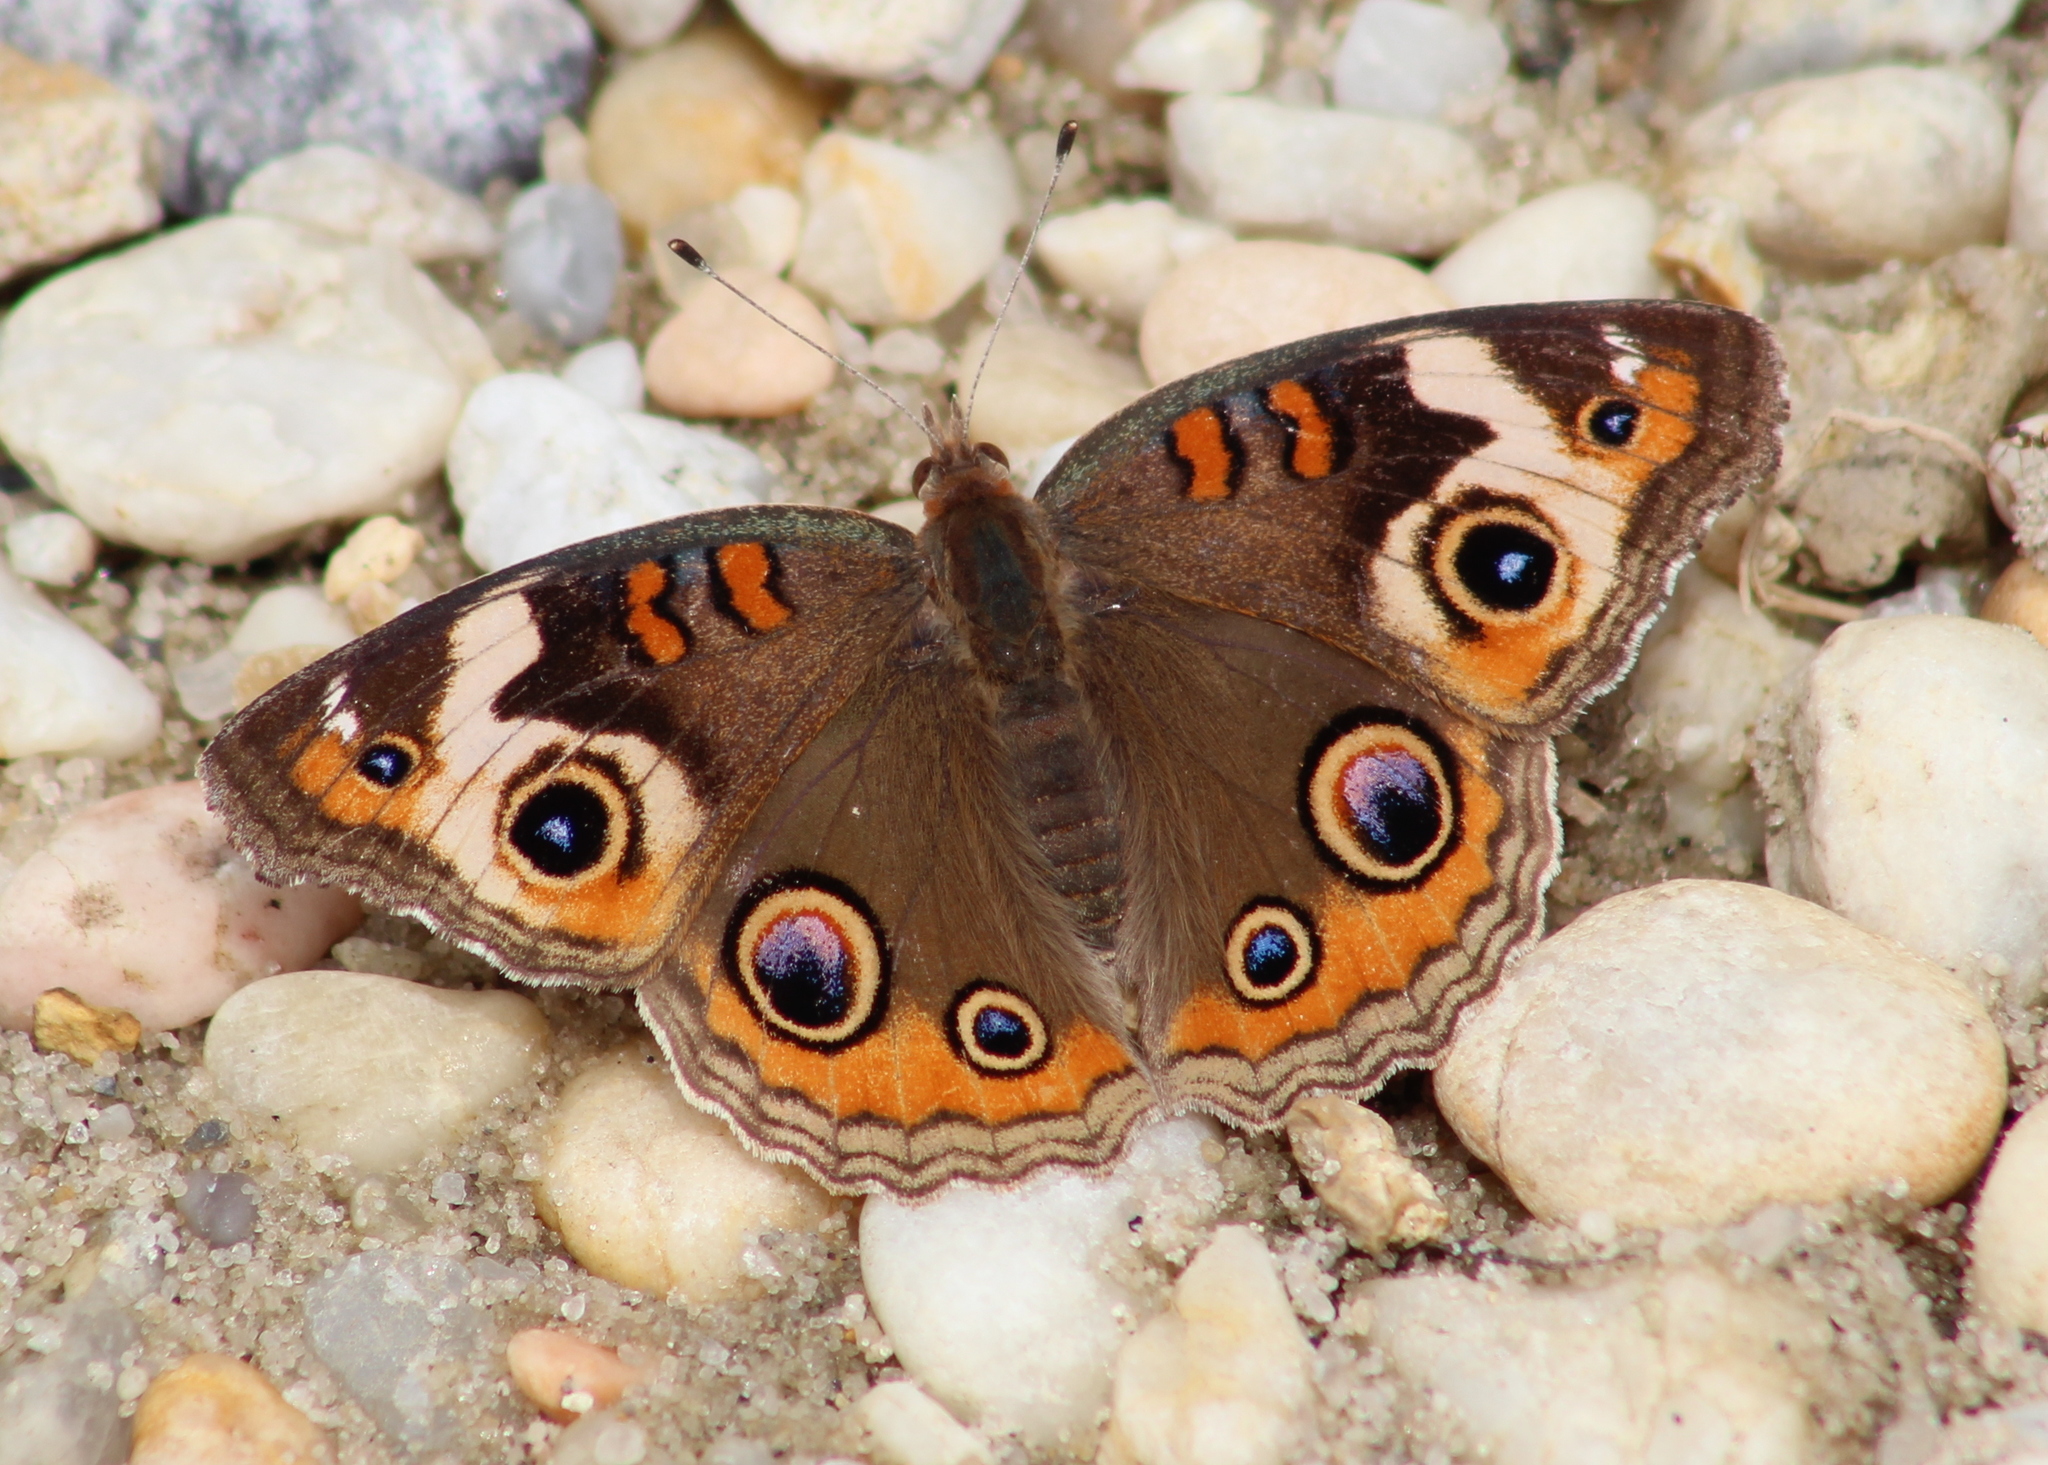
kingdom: Animalia
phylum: Arthropoda
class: Insecta
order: Lepidoptera
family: Nymphalidae
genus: Junonia
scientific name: Junonia coenia
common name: Common buckeye
